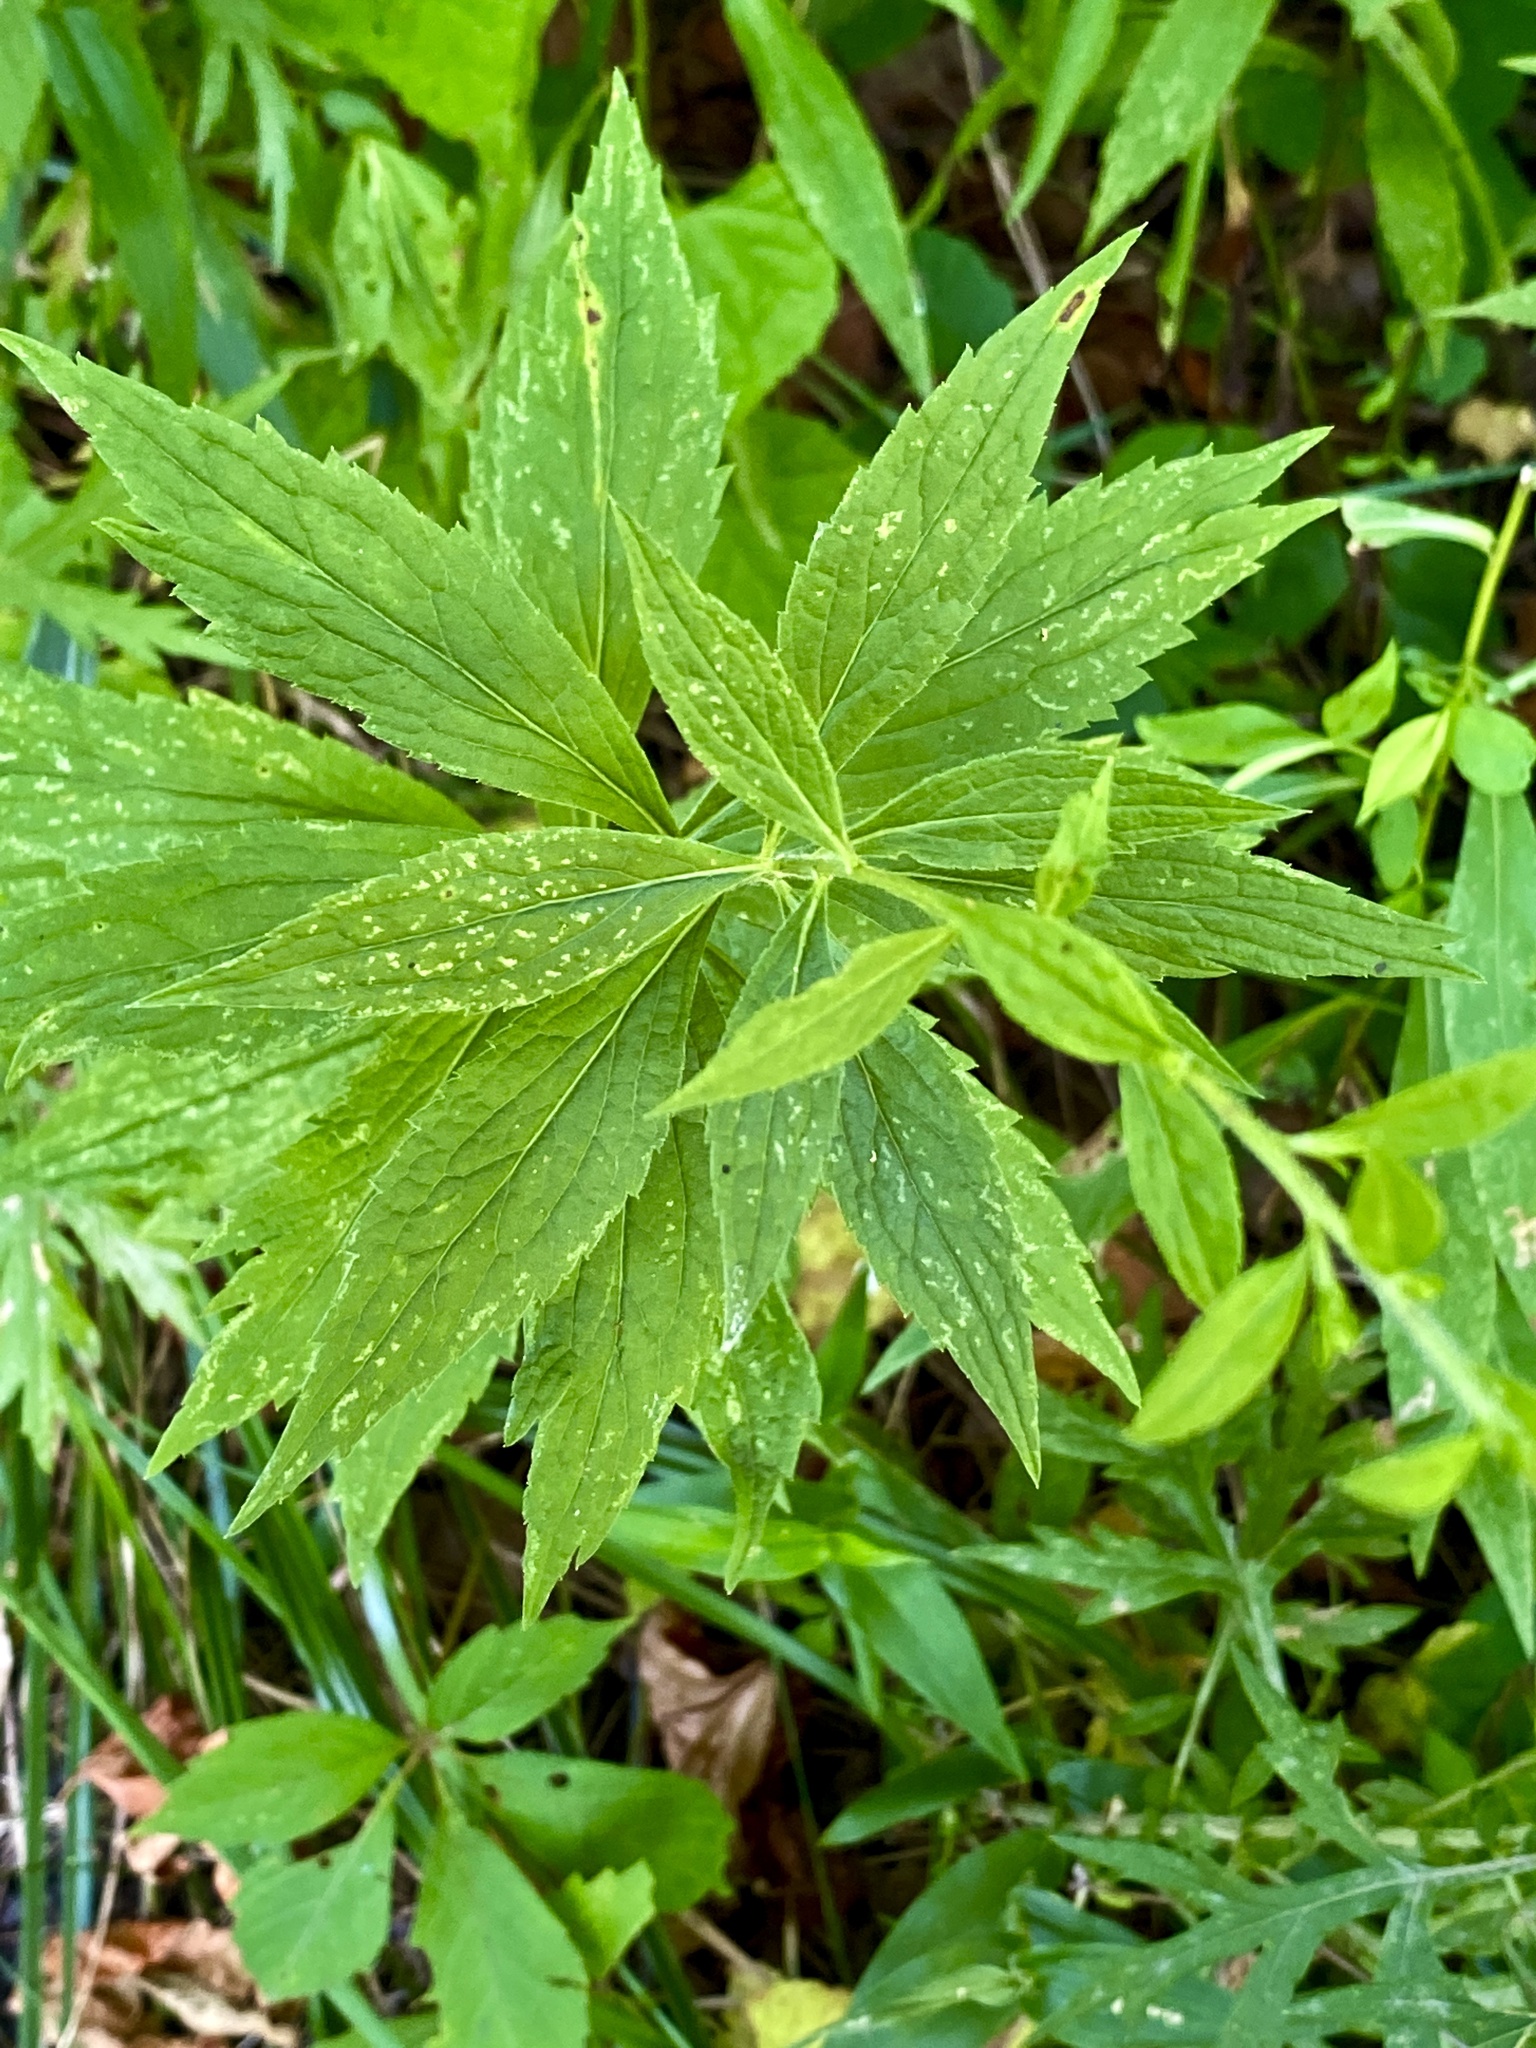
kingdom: Plantae
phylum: Tracheophyta
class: Magnoliopsida
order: Asterales
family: Asteraceae
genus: Solidago
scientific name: Solidago rugosa
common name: Rough-stemmed goldenrod
